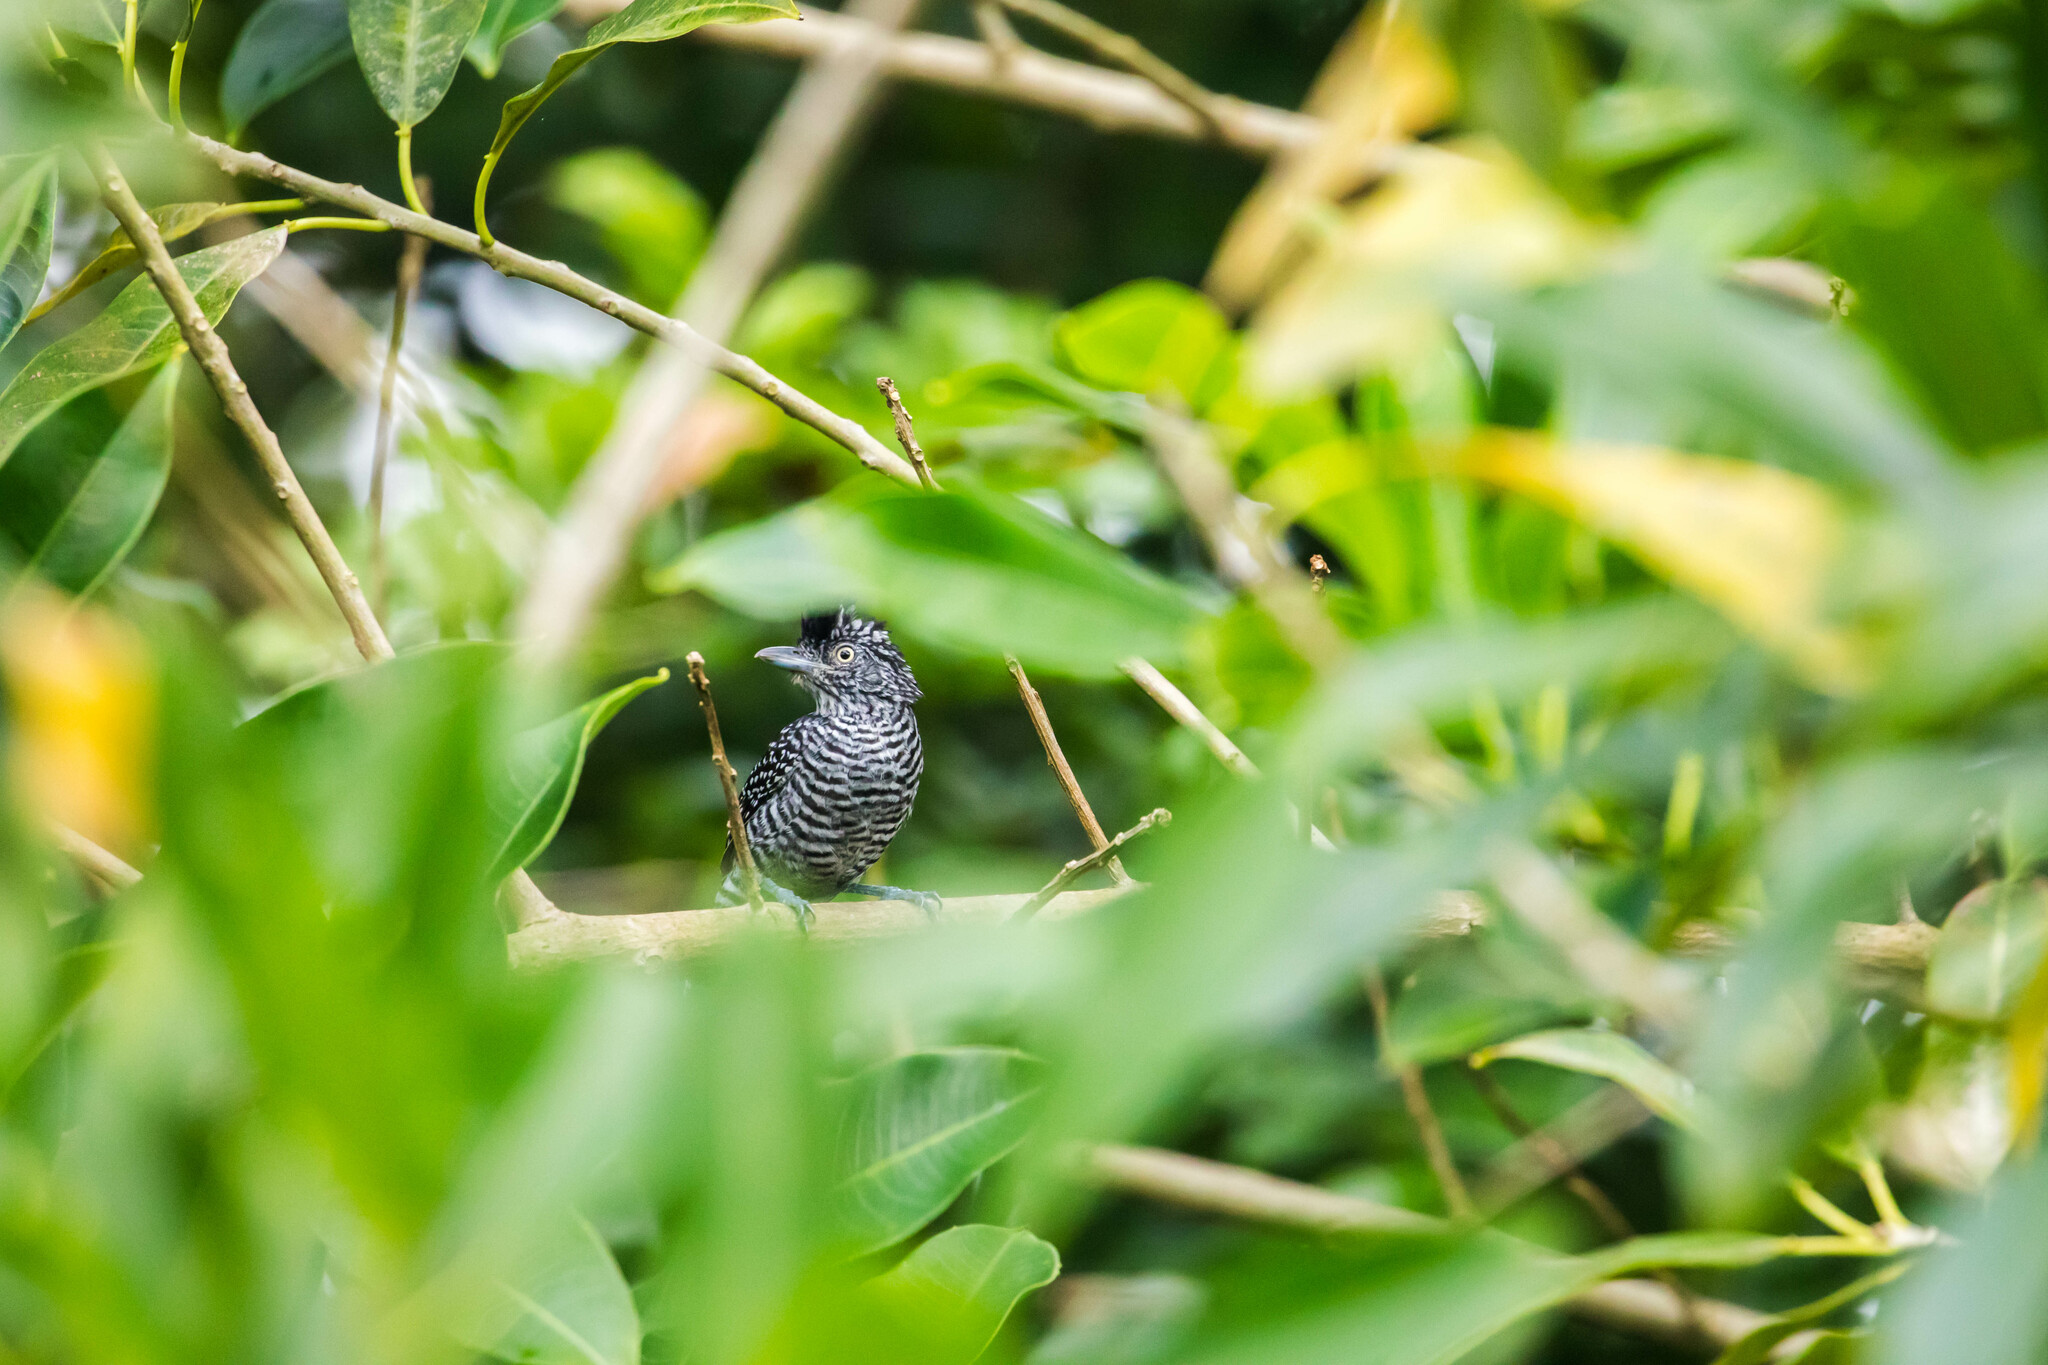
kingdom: Animalia
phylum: Chordata
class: Aves
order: Passeriformes
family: Thamnophilidae
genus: Thamnophilus
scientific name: Thamnophilus doliatus
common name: Barred antshrike
